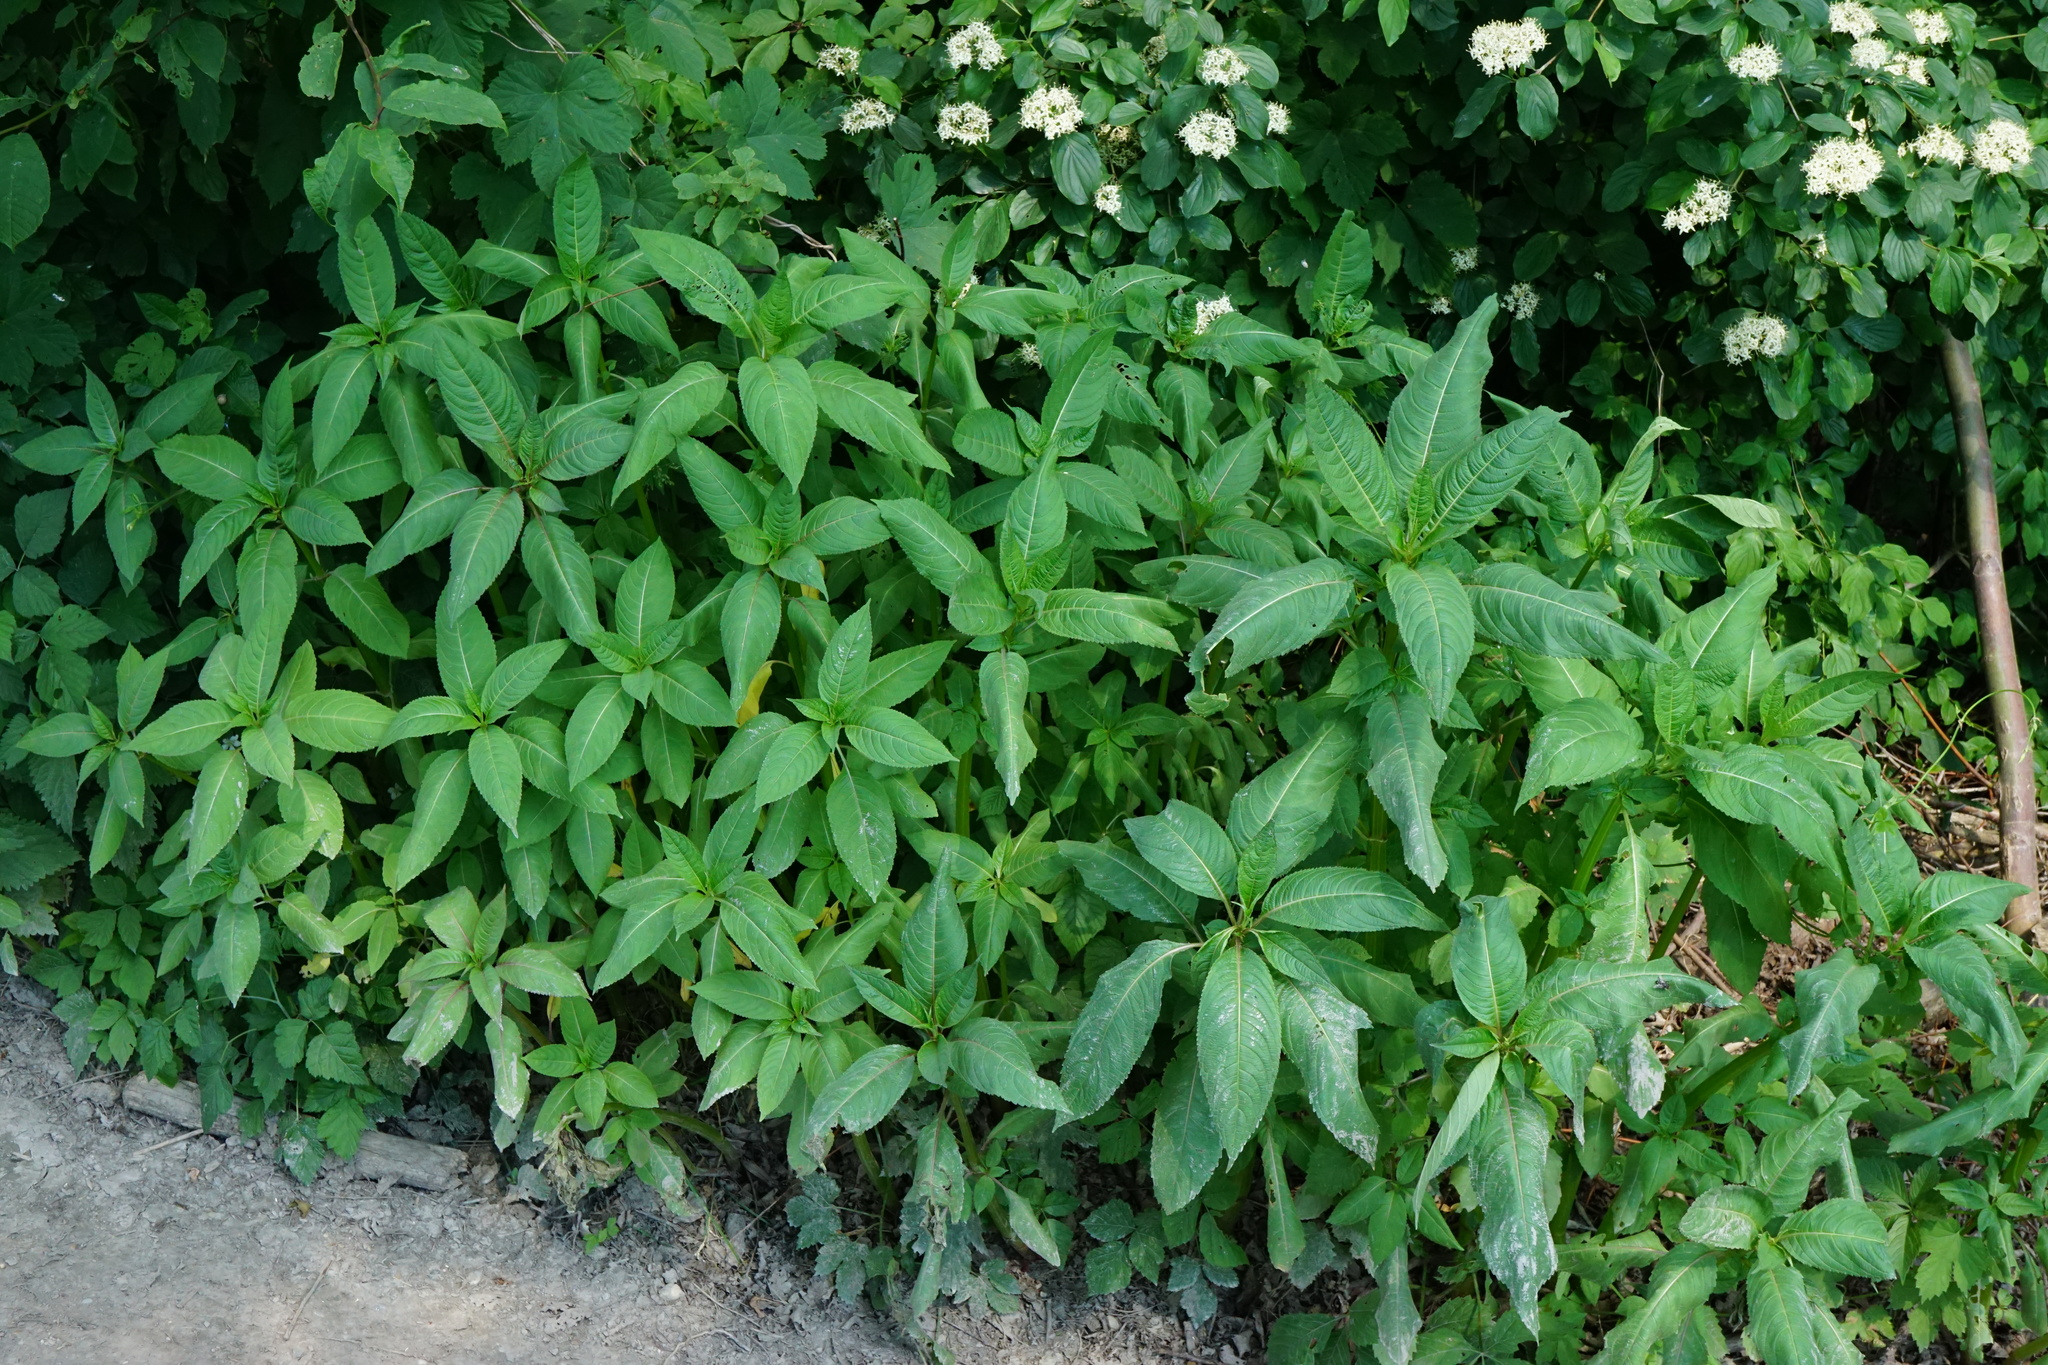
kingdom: Plantae
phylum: Tracheophyta
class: Magnoliopsida
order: Ericales
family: Balsaminaceae
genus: Impatiens
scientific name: Impatiens glandulifera
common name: Himalayan balsam
